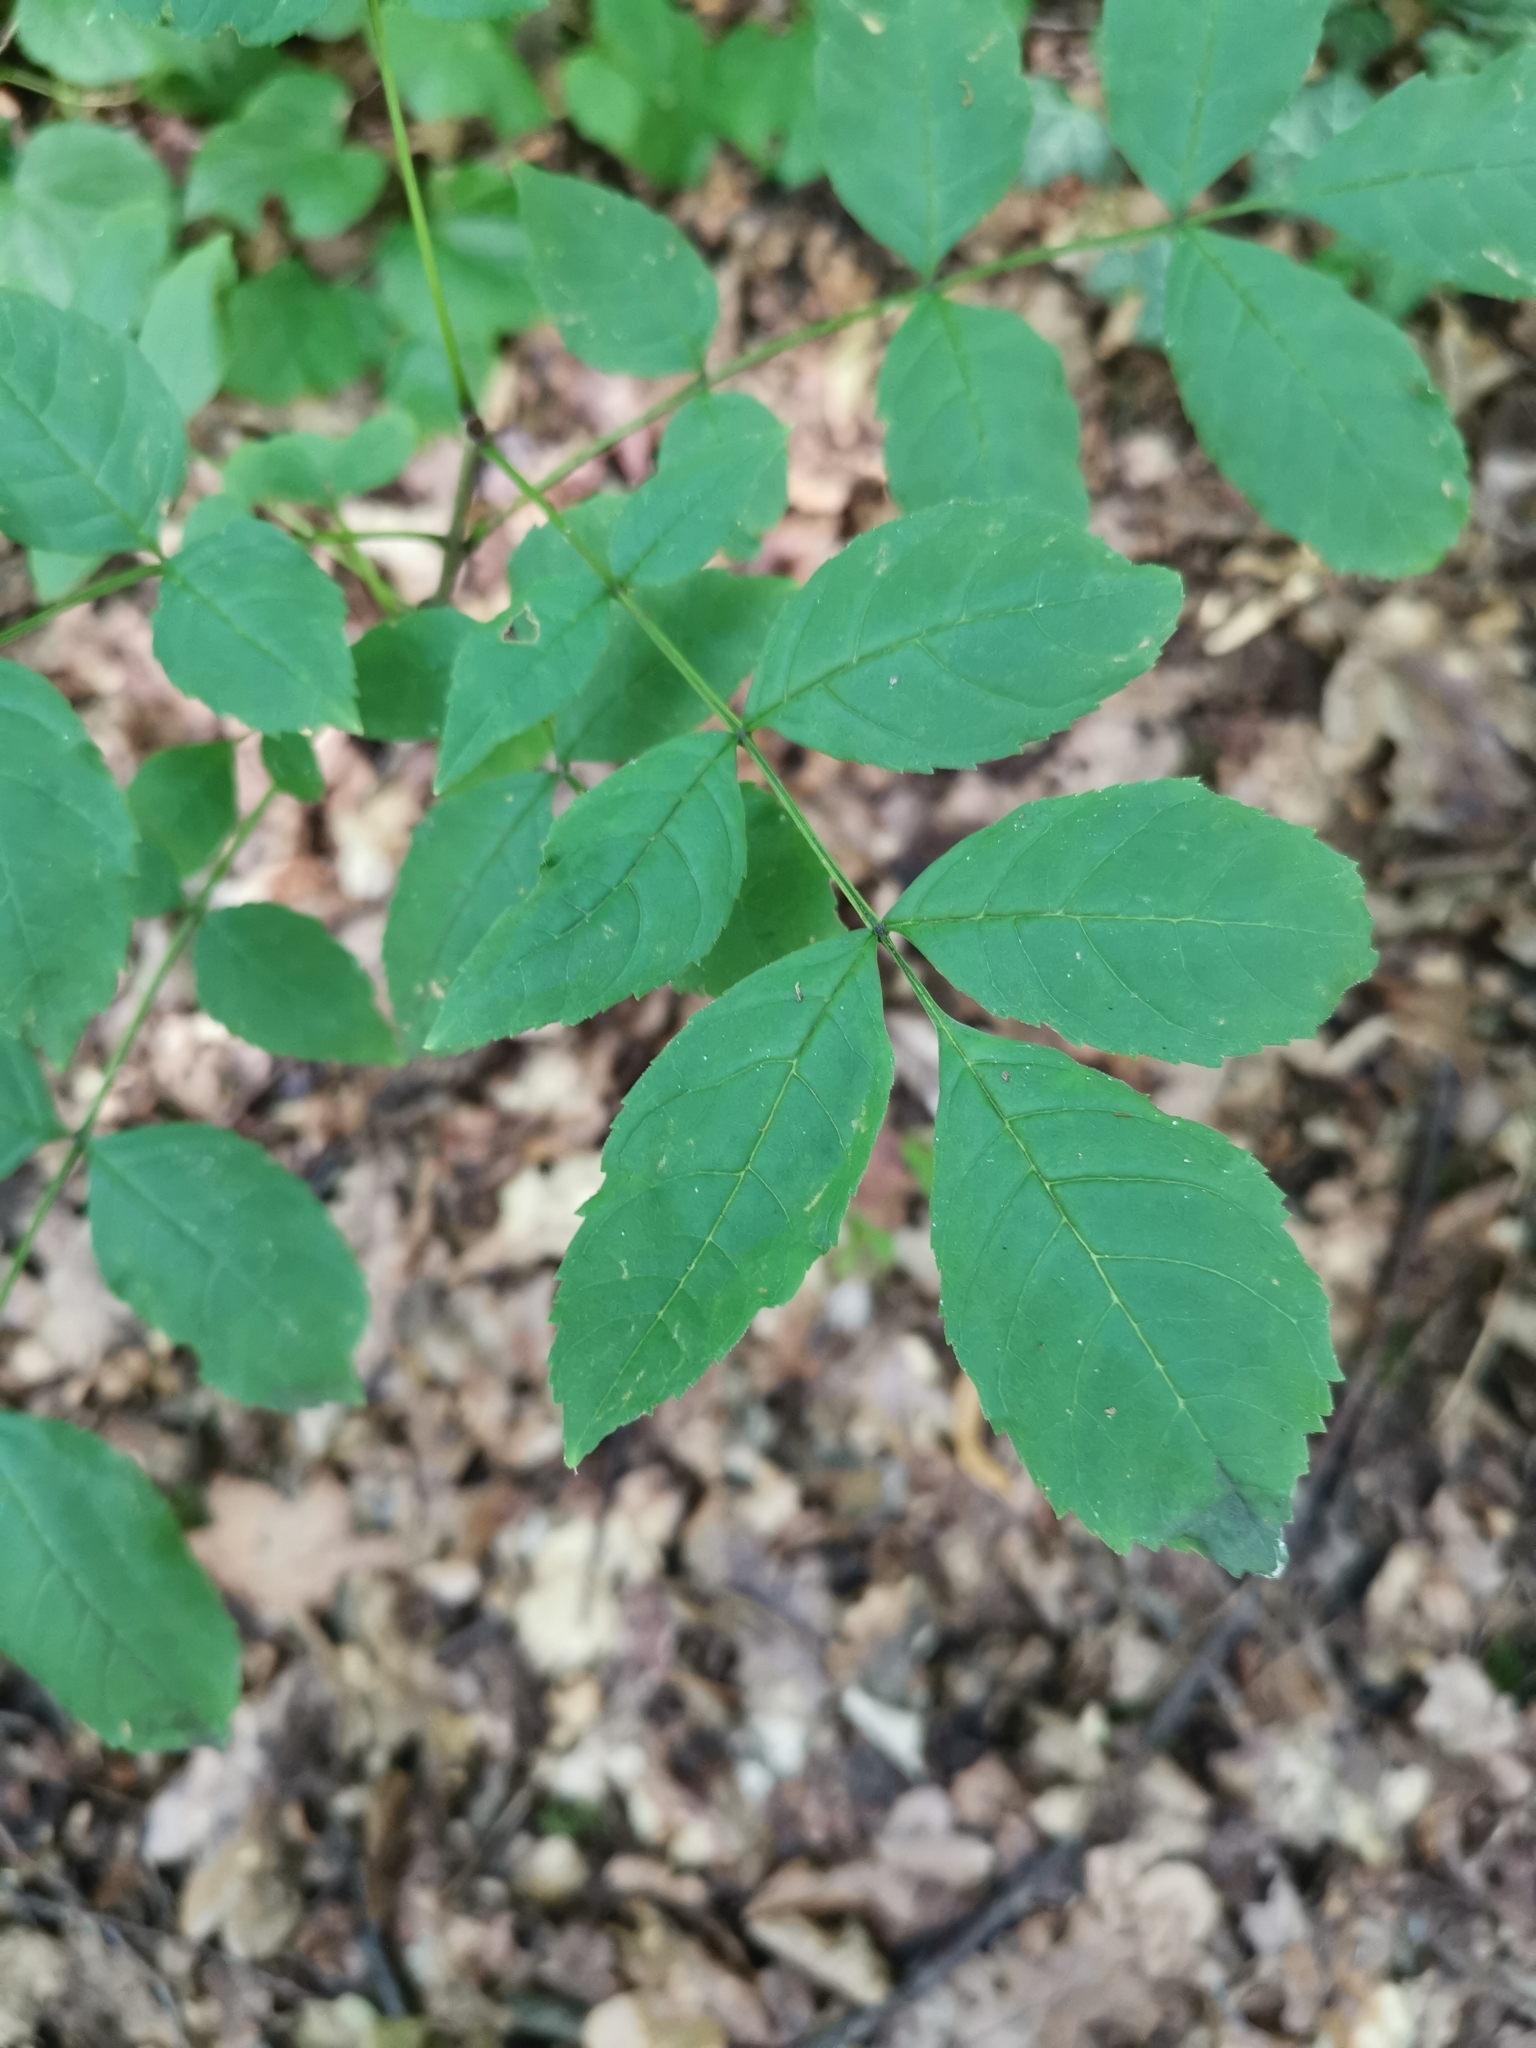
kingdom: Plantae
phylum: Tracheophyta
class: Magnoliopsida
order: Lamiales
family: Oleaceae
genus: Fraxinus
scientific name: Fraxinus excelsior
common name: European ash
